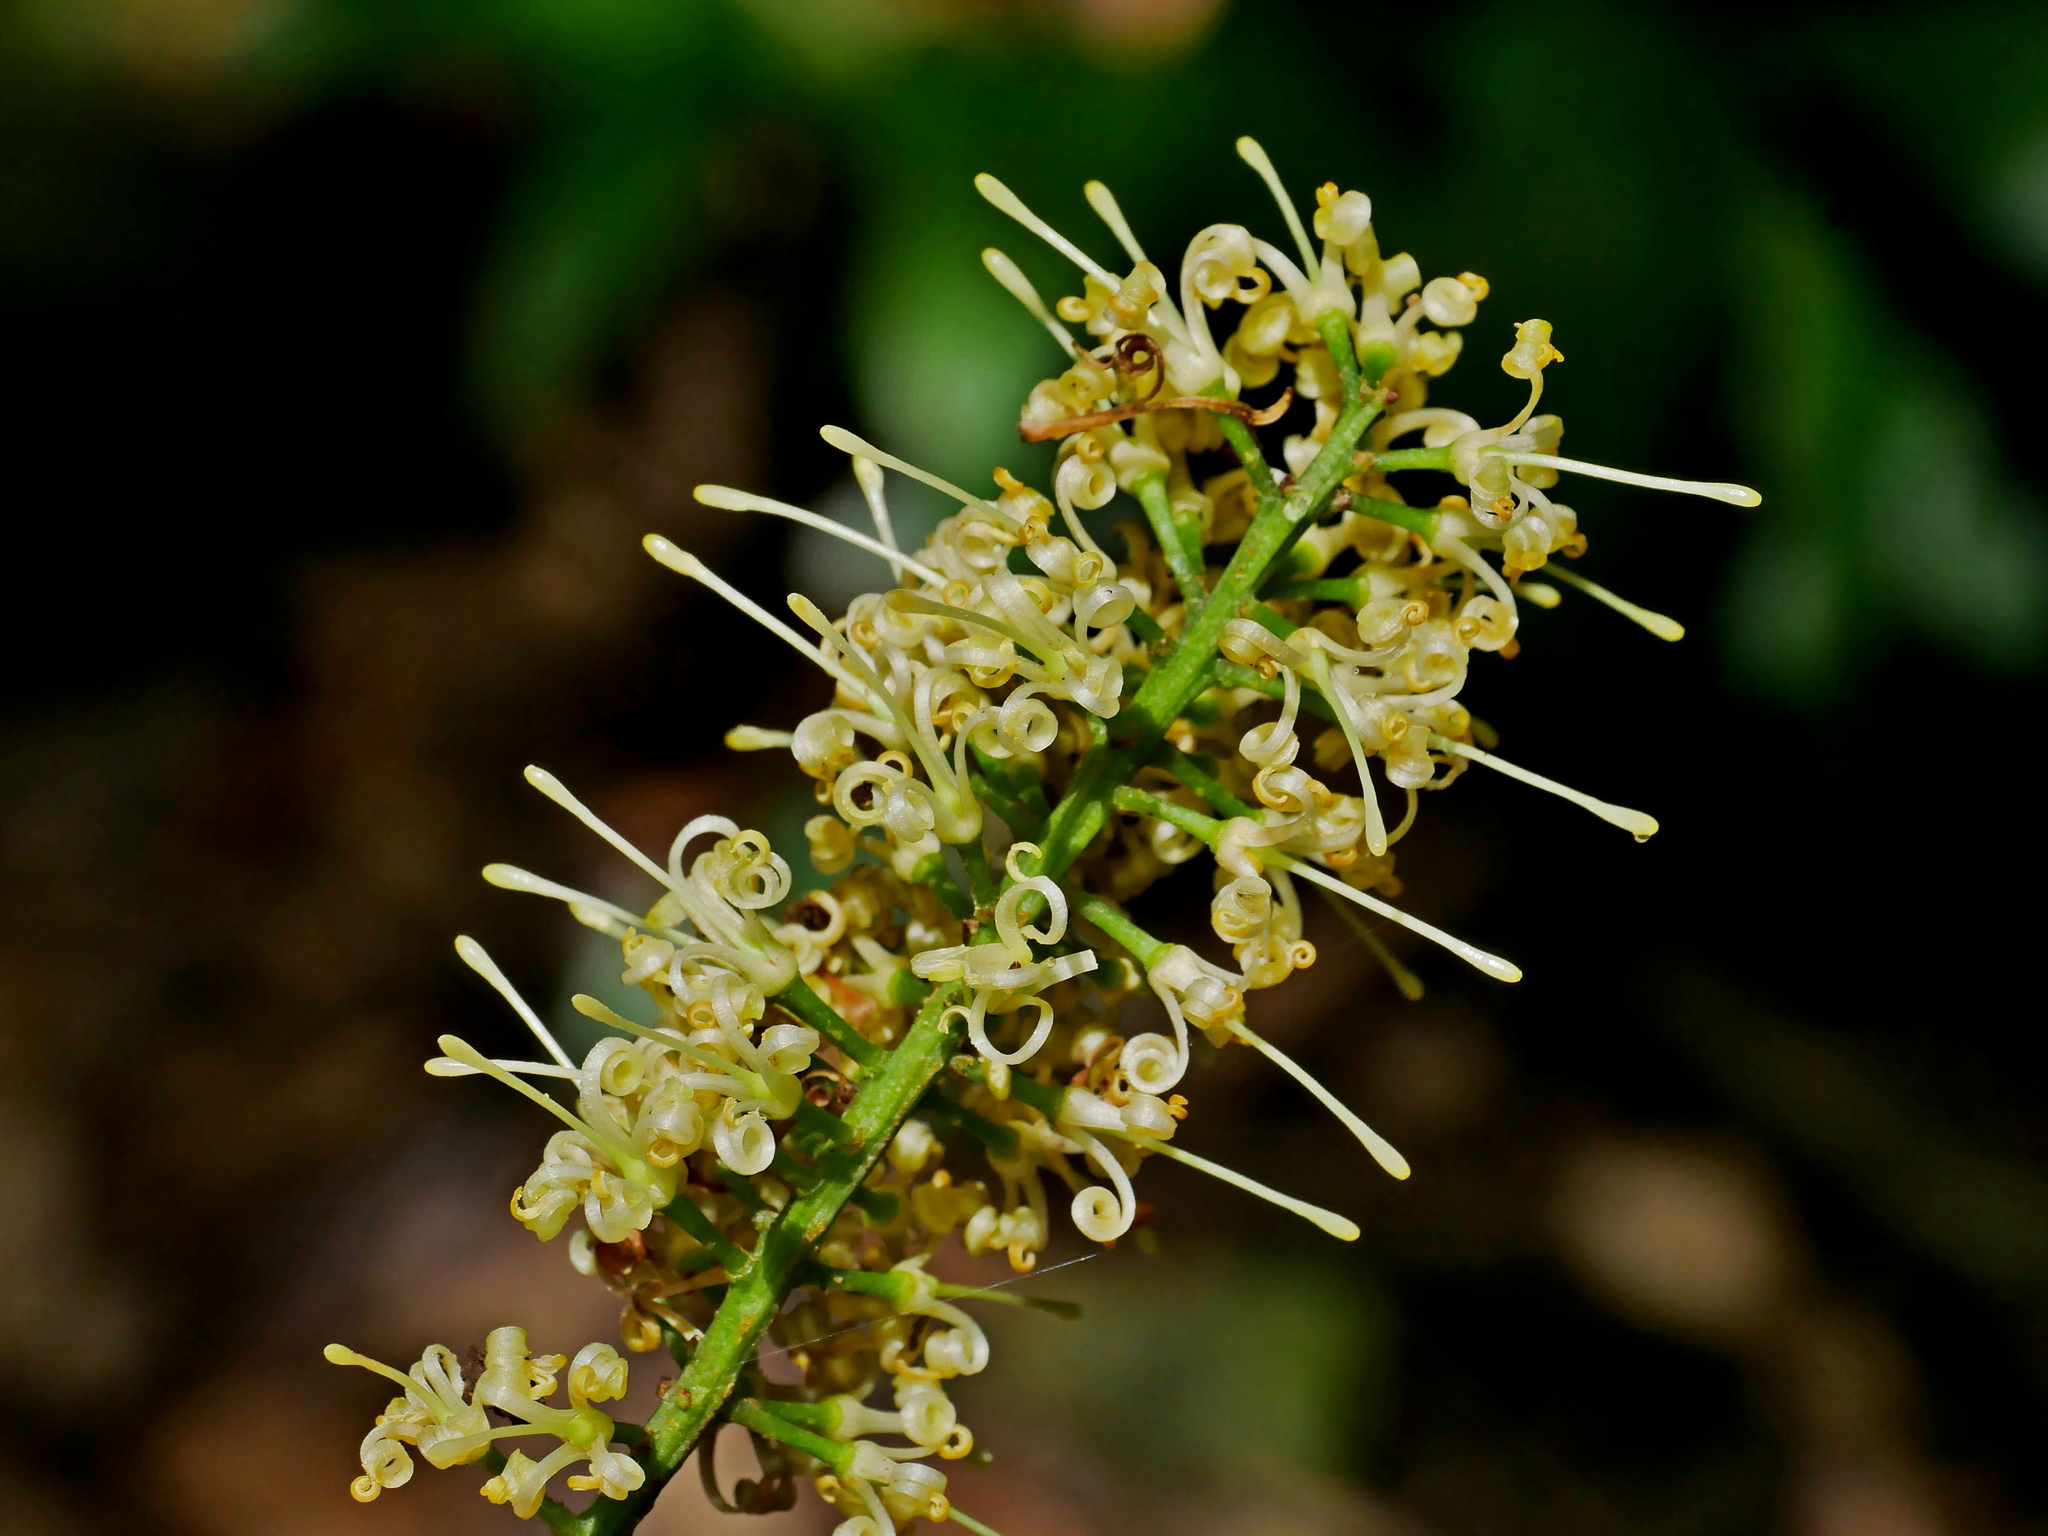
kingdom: Plantae
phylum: Tracheophyta
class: Magnoliopsida
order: Proteales
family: Proteaceae
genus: Helicia
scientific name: Helicia cochinchinensis
